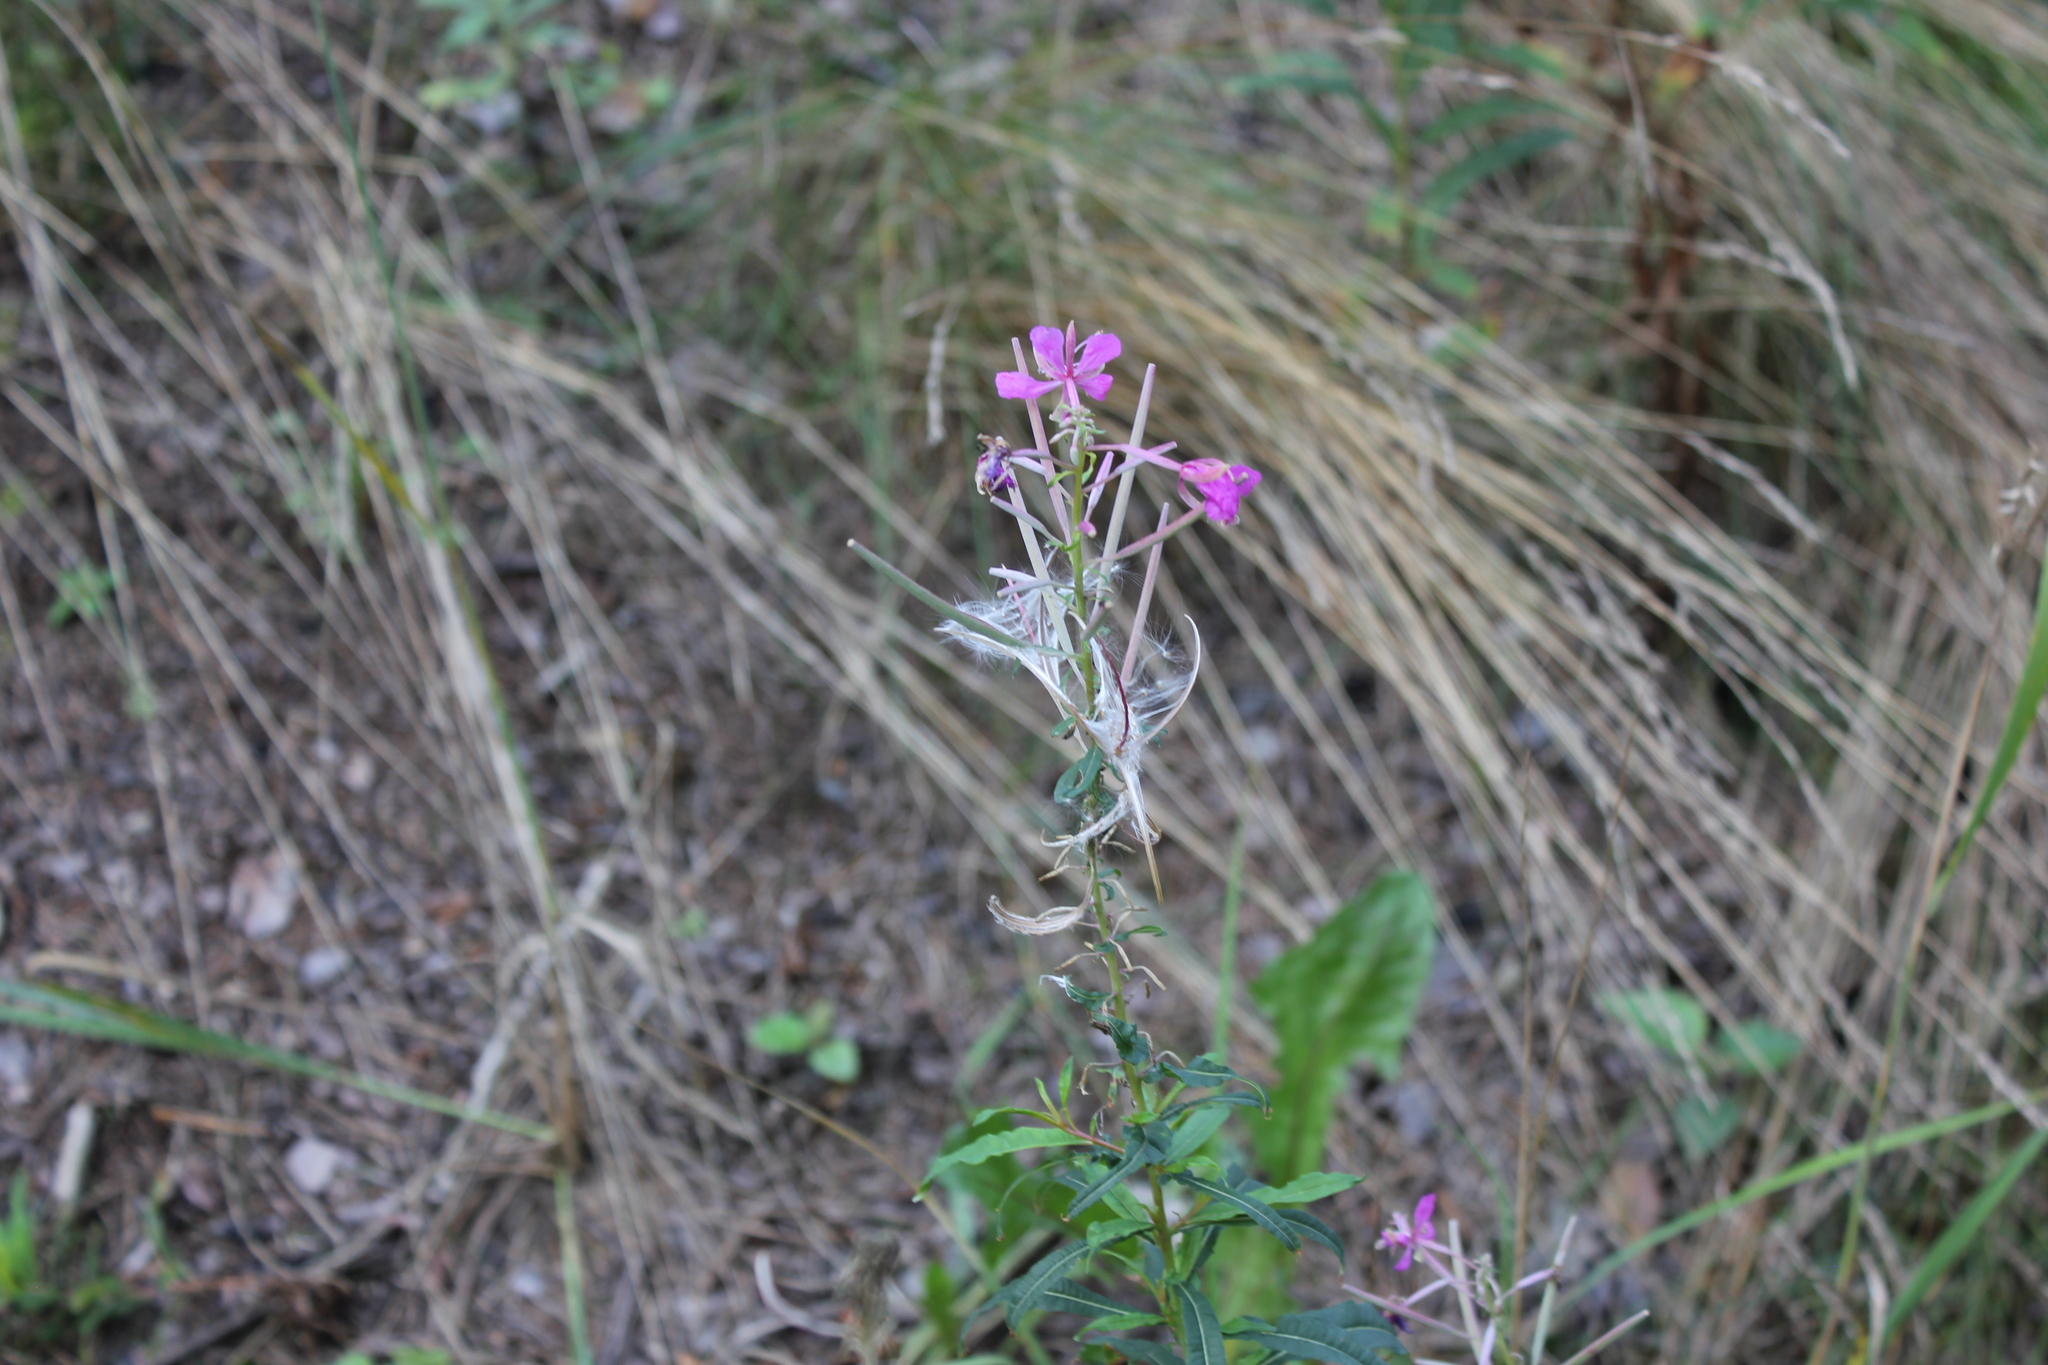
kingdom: Plantae
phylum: Tracheophyta
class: Magnoliopsida
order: Myrtales
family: Onagraceae
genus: Epilobium
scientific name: Epilobium hirsutum
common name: Great willowherb
